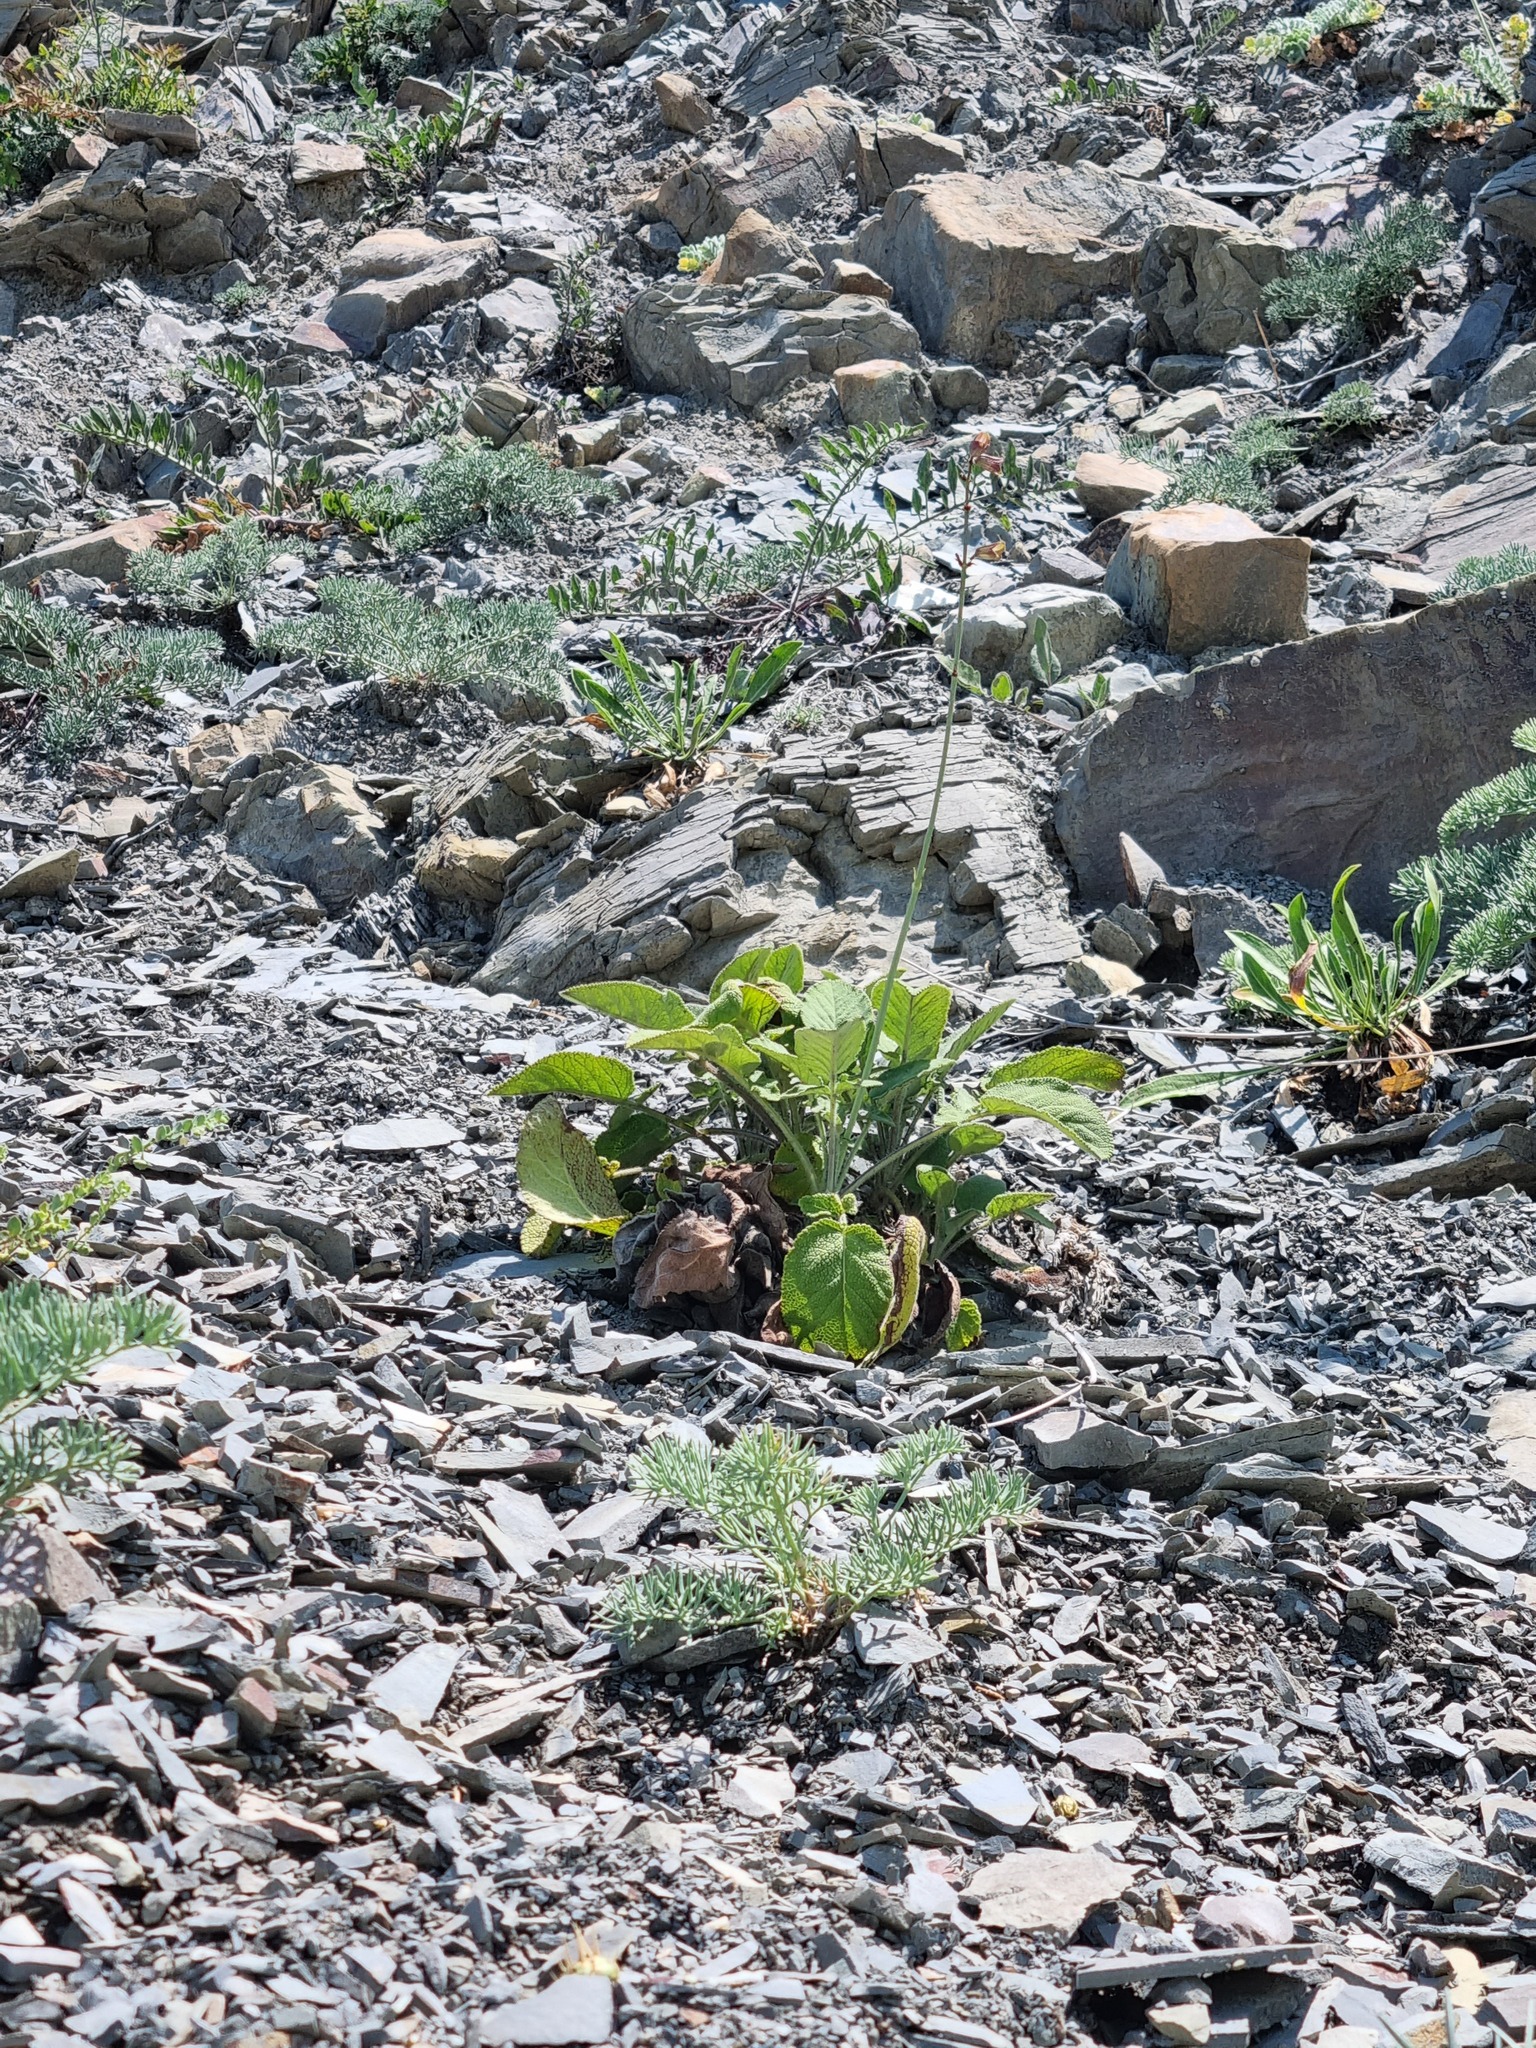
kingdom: Plantae
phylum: Tracheophyta
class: Magnoliopsida
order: Lamiales
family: Lamiaceae
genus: Salvia
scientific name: Salvia ringens
